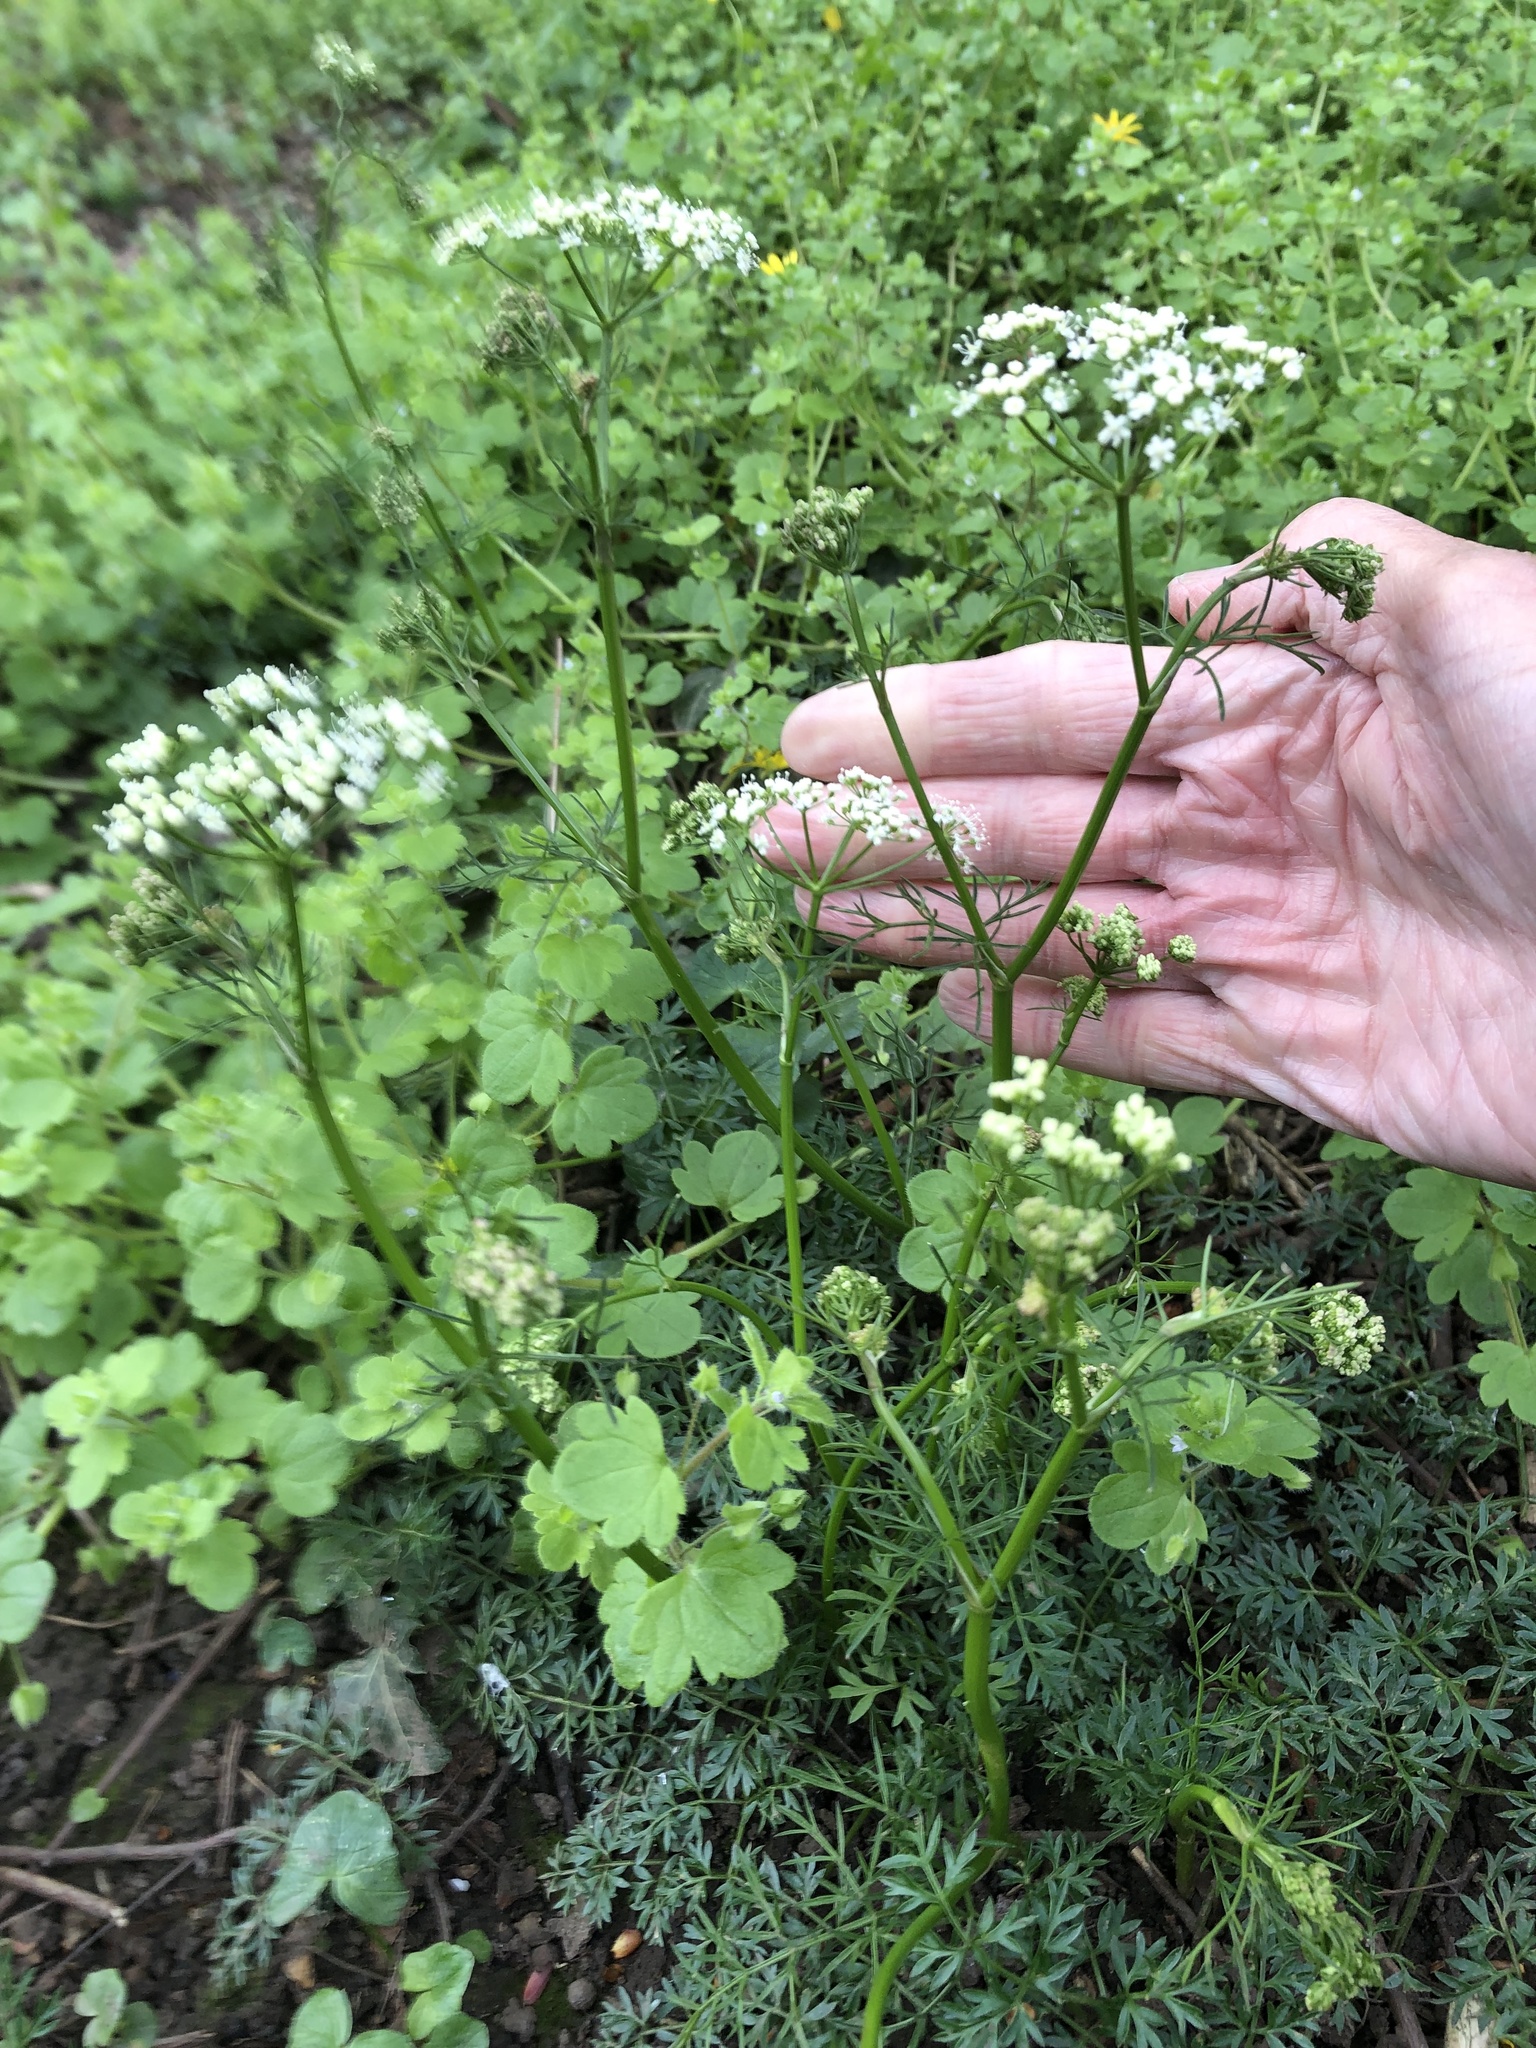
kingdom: Plantae
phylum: Tracheophyta
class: Magnoliopsida
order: Apiales
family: Apiaceae
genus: Conopodium
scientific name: Conopodium majus
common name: Pignut
